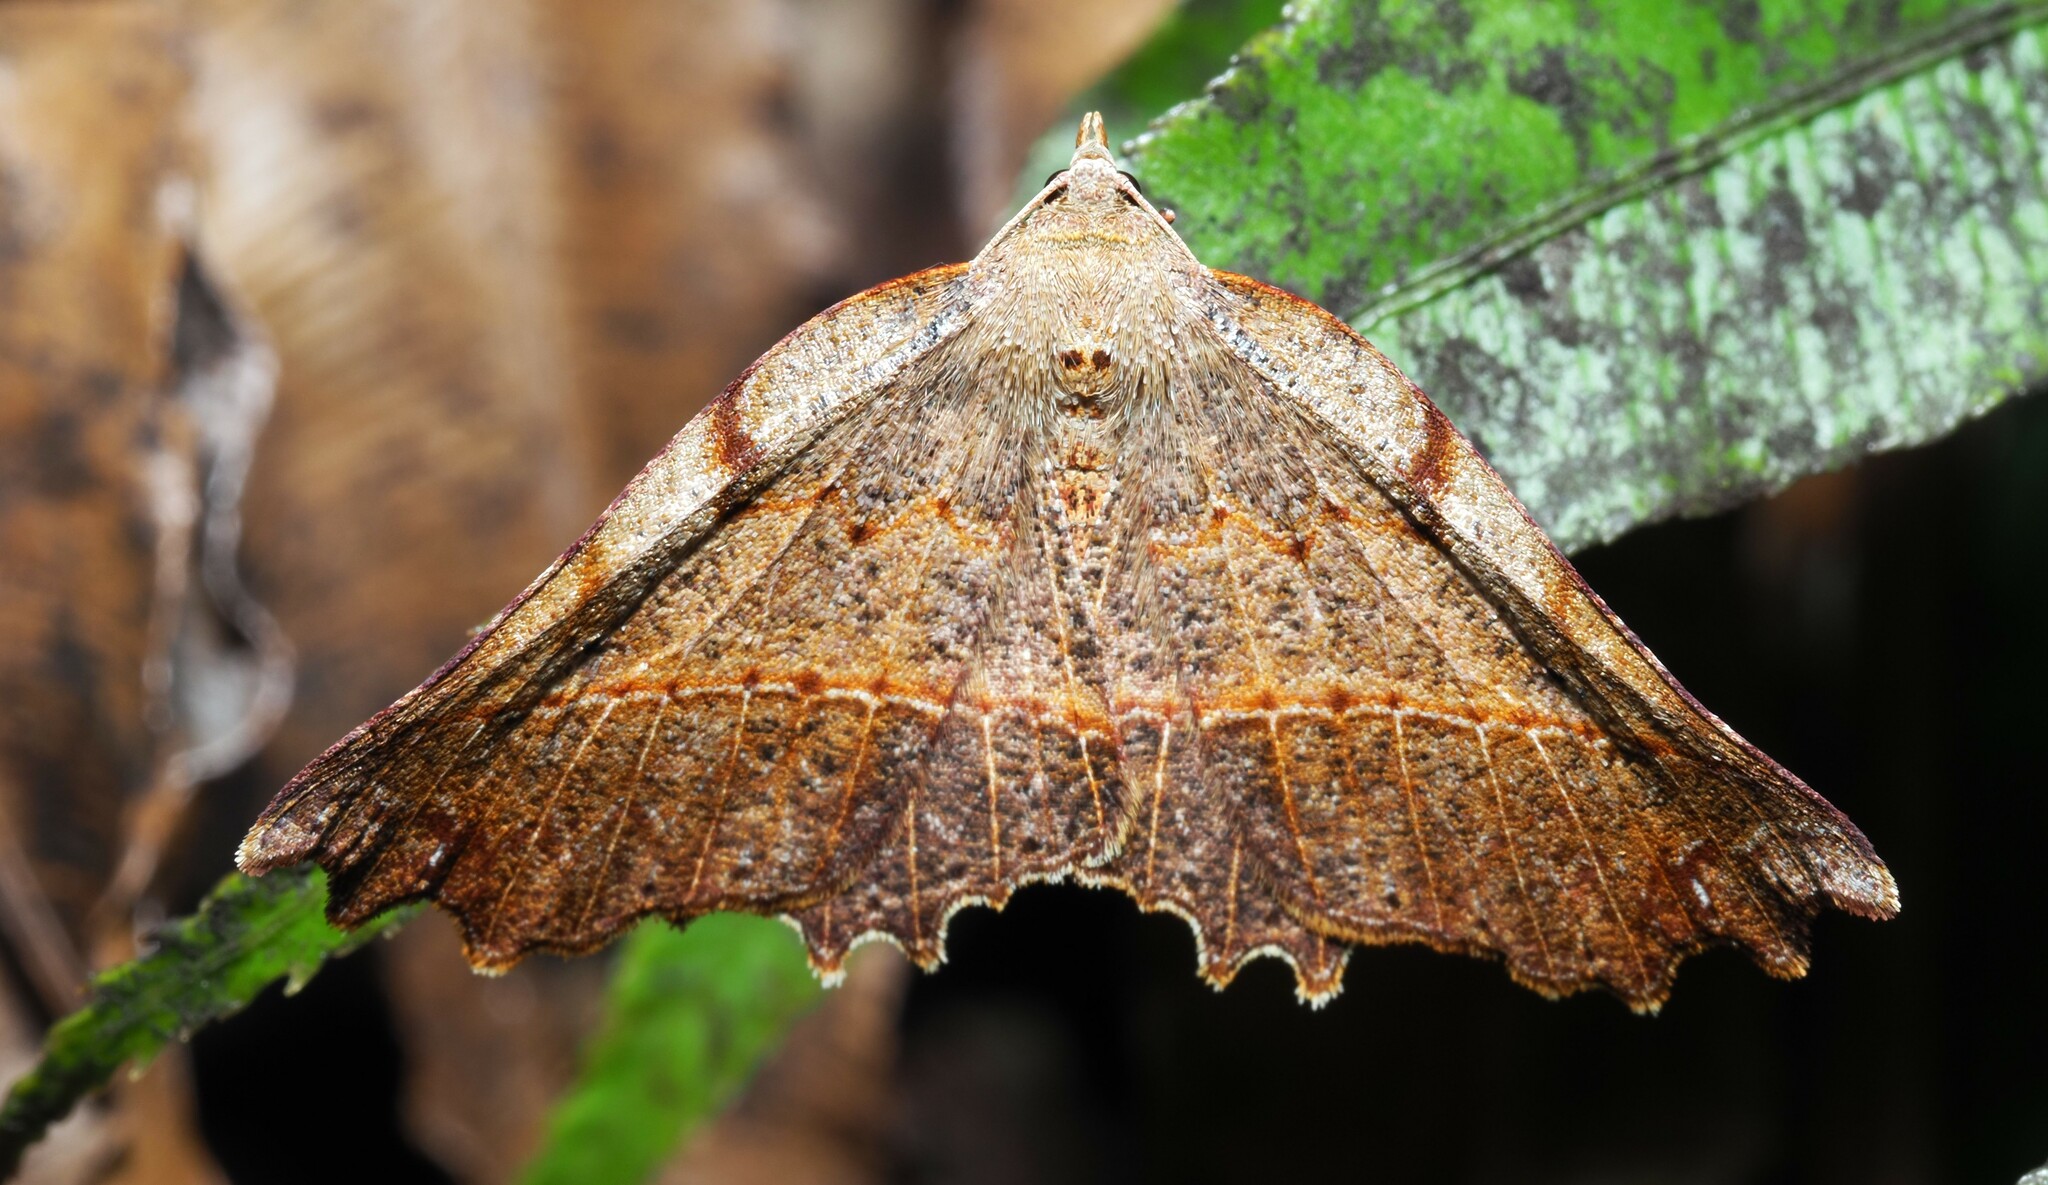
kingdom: Animalia
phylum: Arthropoda
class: Insecta
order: Lepidoptera
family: Geometridae
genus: Ischalis
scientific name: Ischalis gallaria
